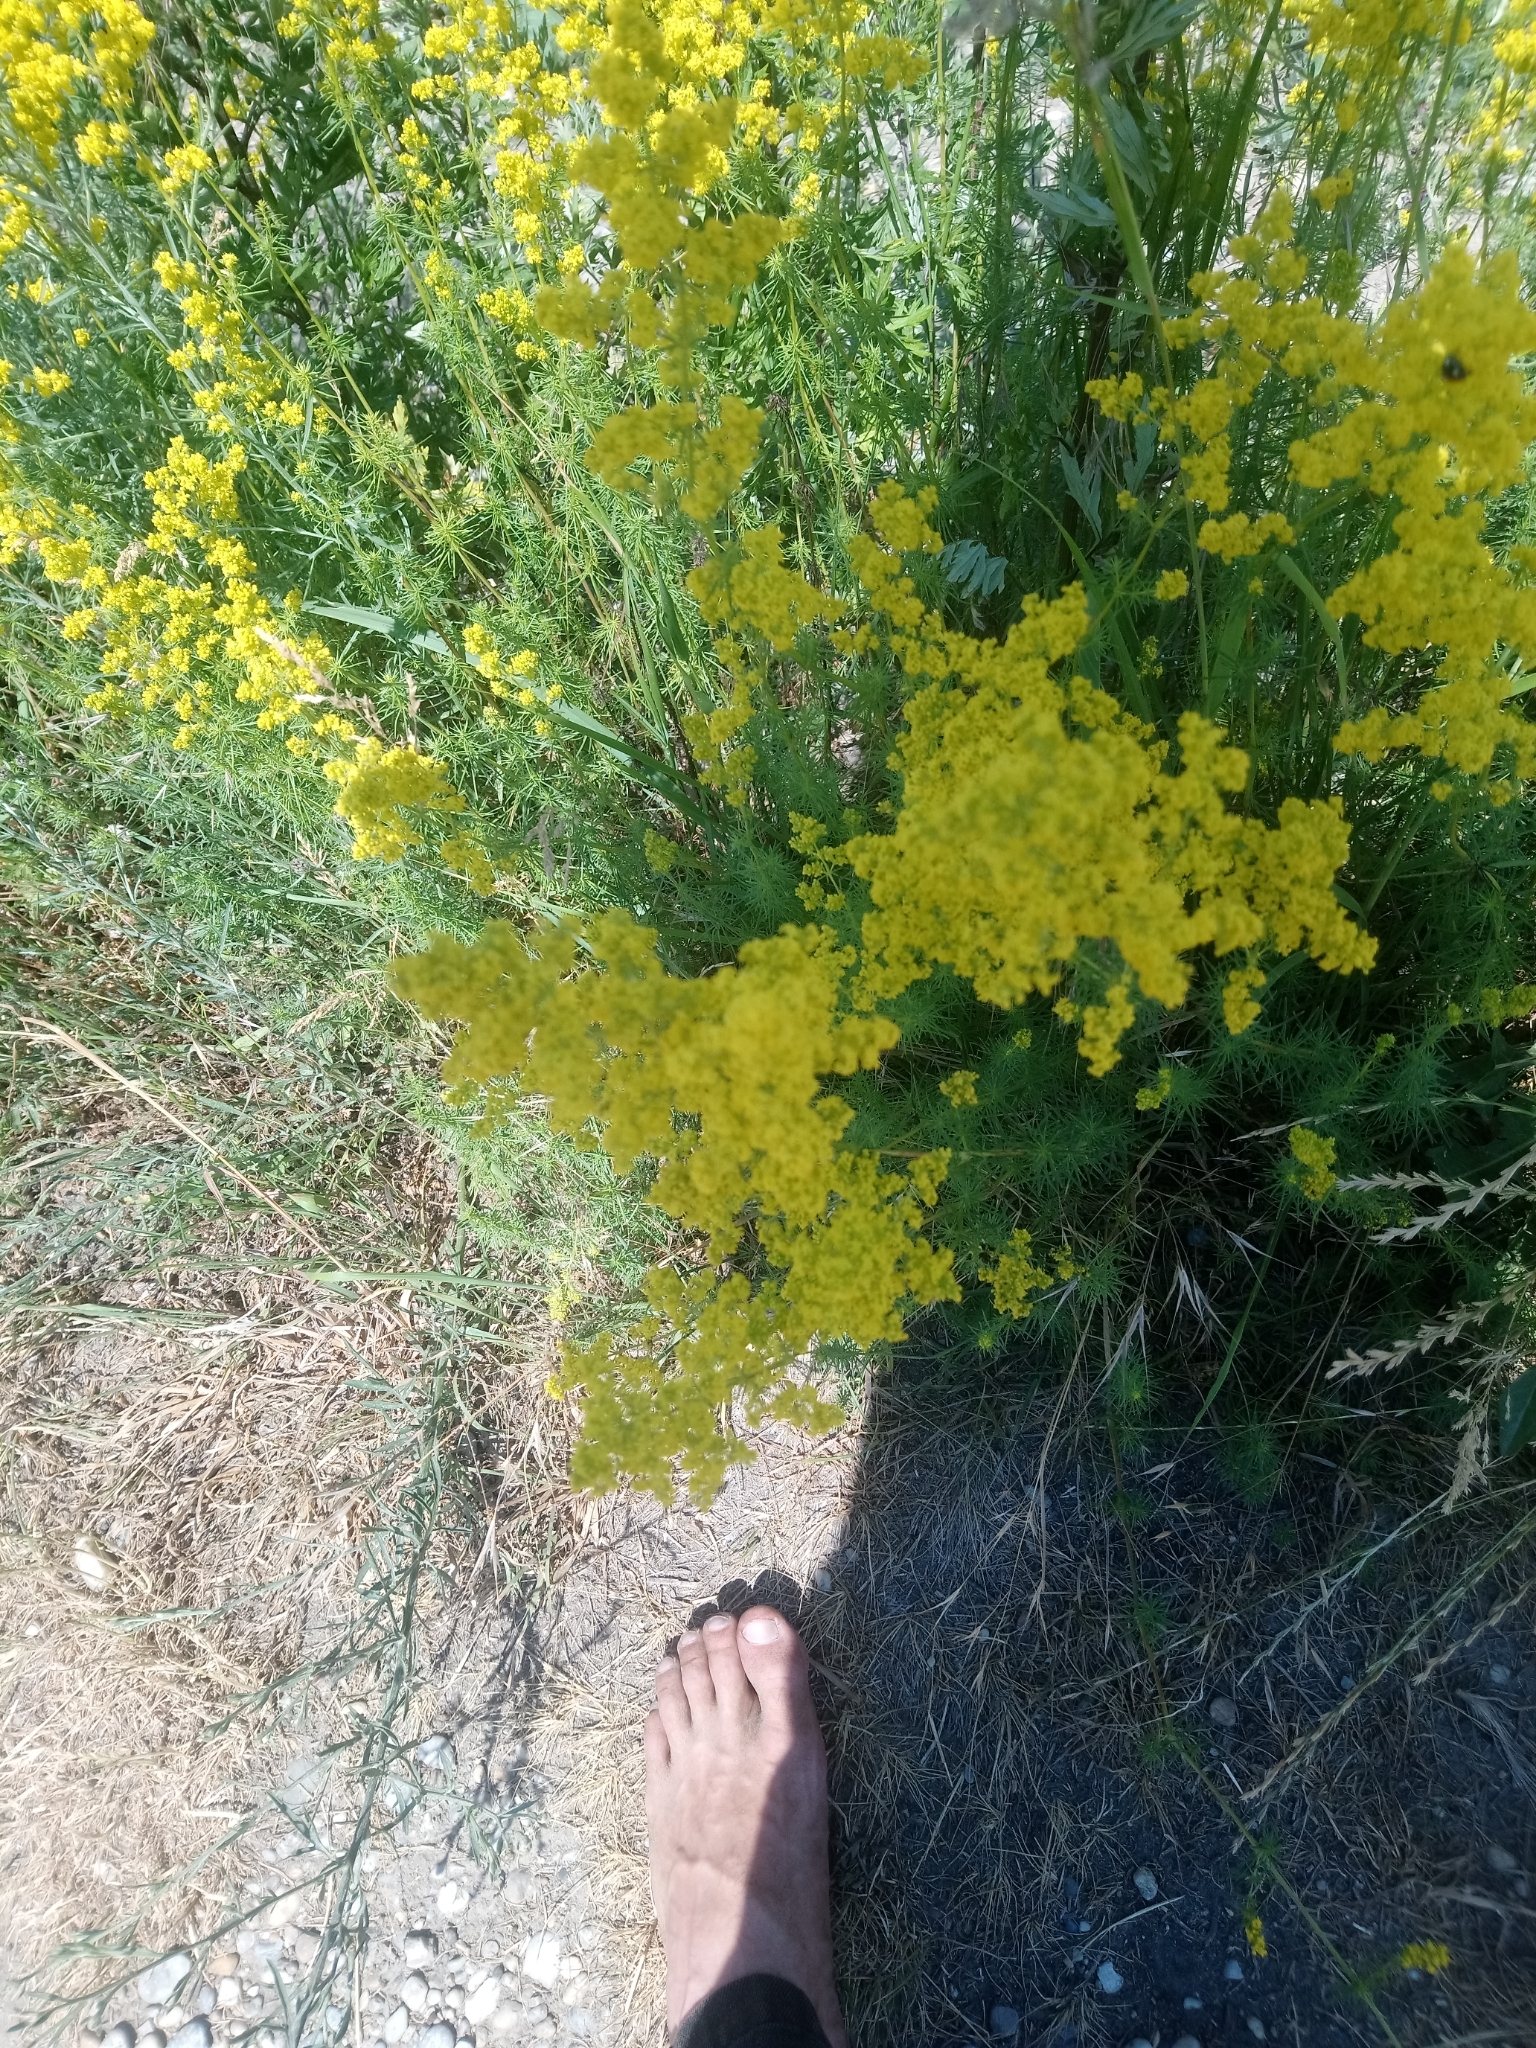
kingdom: Plantae
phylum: Tracheophyta
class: Magnoliopsida
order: Gentianales
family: Rubiaceae
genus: Galium
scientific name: Galium verum
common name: Lady's bedstraw
